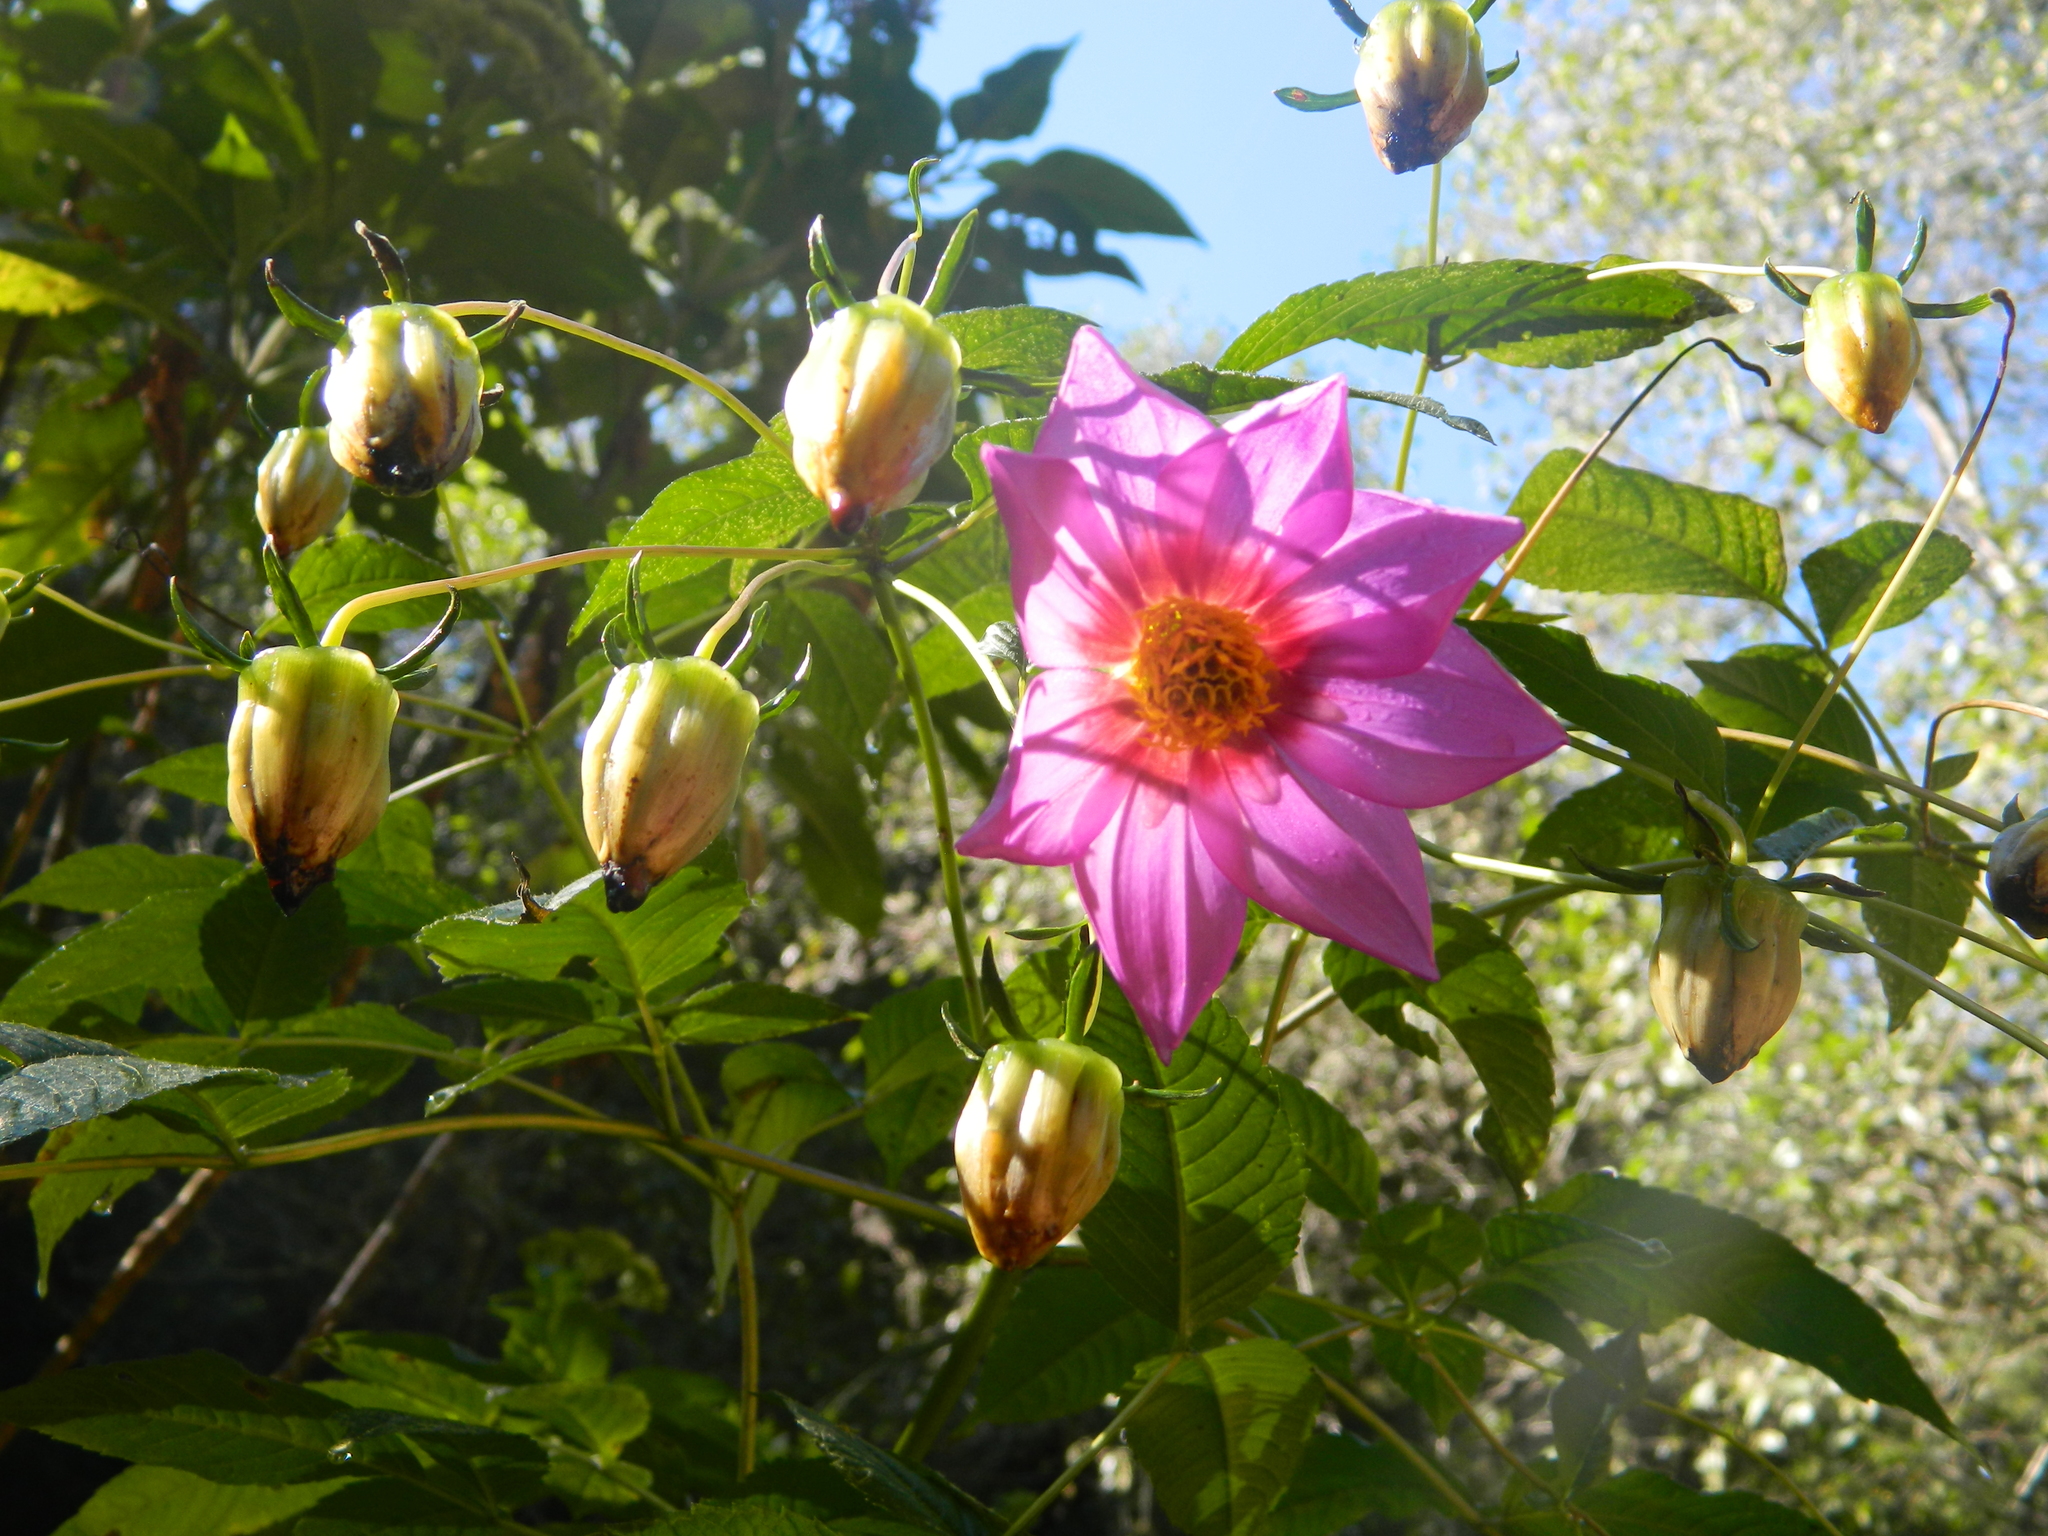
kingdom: Plantae
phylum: Tracheophyta
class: Magnoliopsida
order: Asterales
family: Asteraceae
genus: Dahlia
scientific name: Dahlia imperialis
